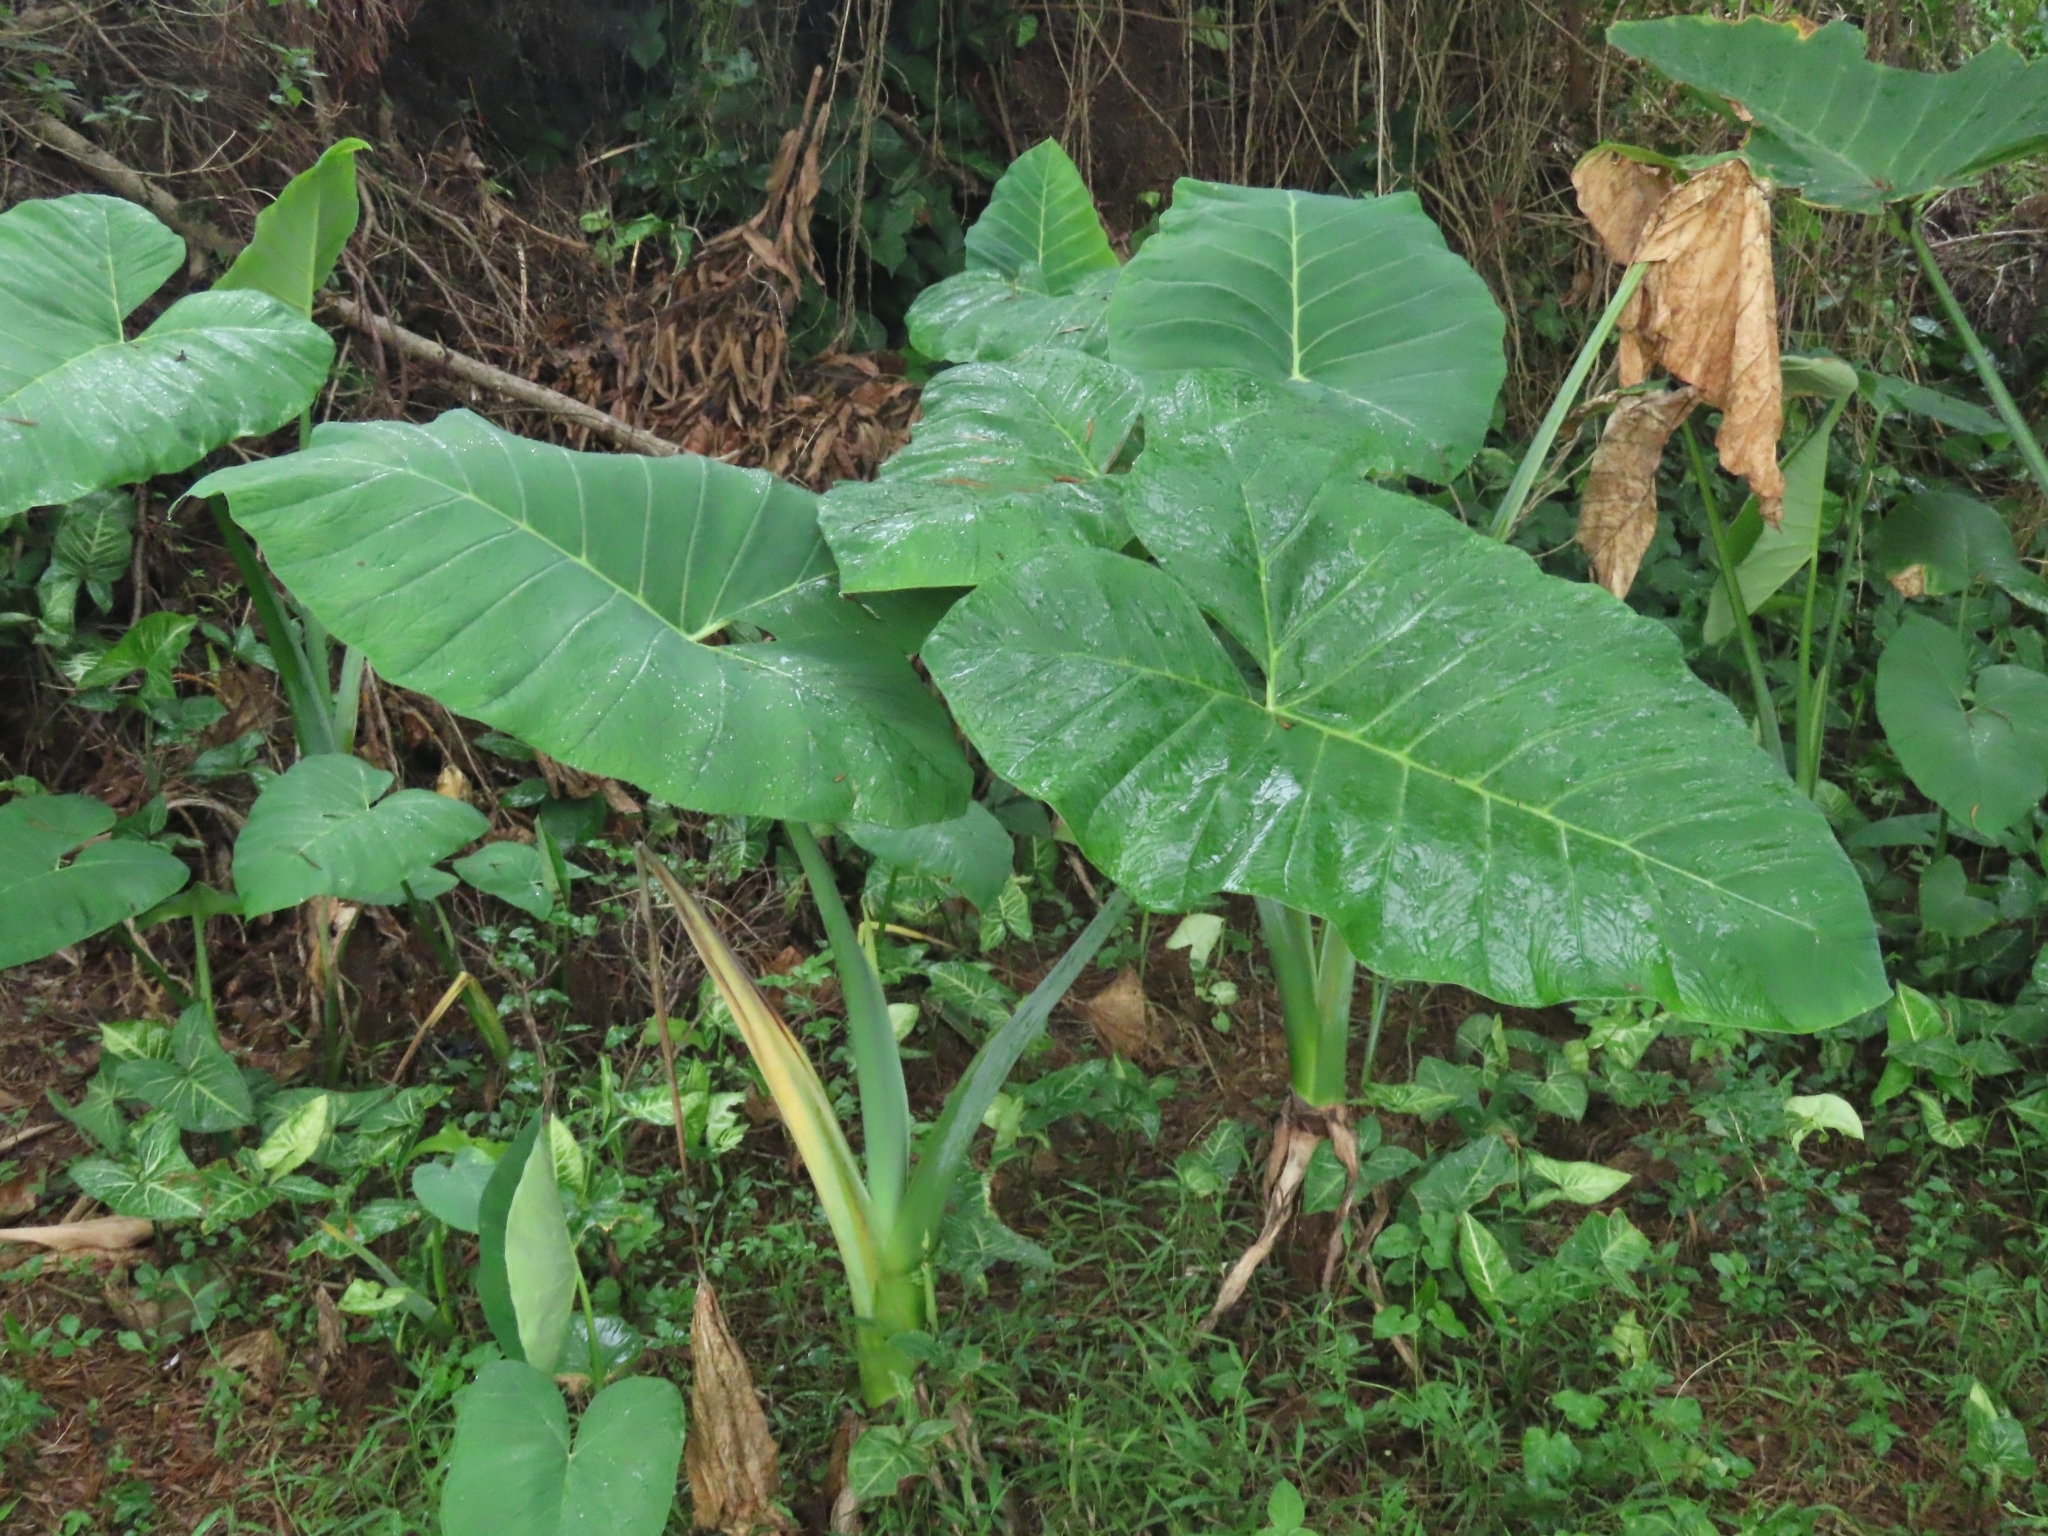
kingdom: Plantae
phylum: Tracheophyta
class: Liliopsida
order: Alismatales
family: Araceae
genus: Xanthosoma
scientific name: Xanthosoma sagittifolium
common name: Arrowleaf elephant's ear
